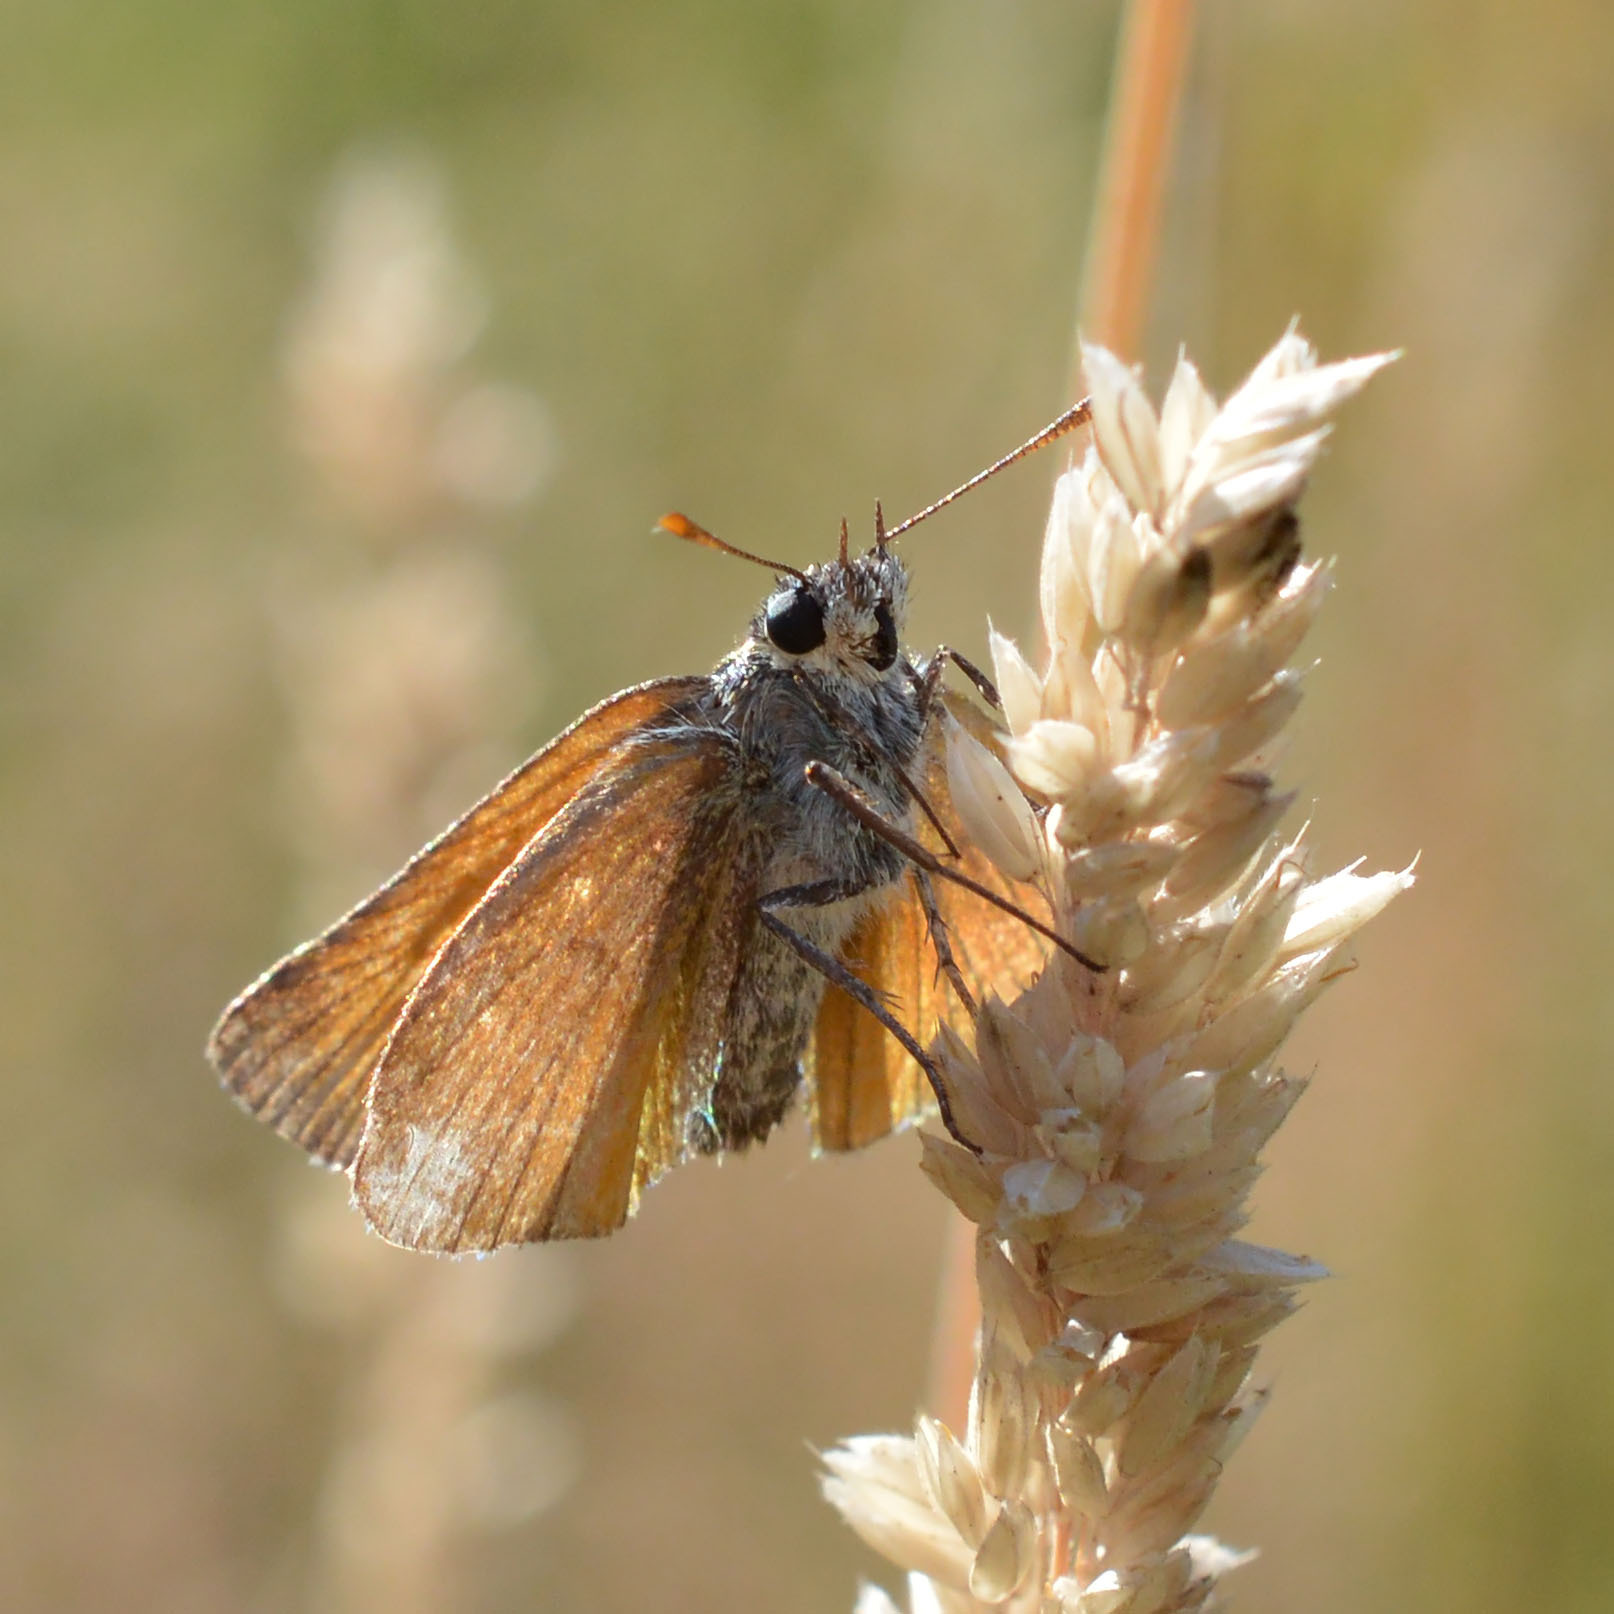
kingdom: Animalia
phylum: Arthropoda
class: Insecta
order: Lepidoptera
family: Hesperiidae
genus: Thymelicus
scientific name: Thymelicus sylvestris
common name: Small skipper
